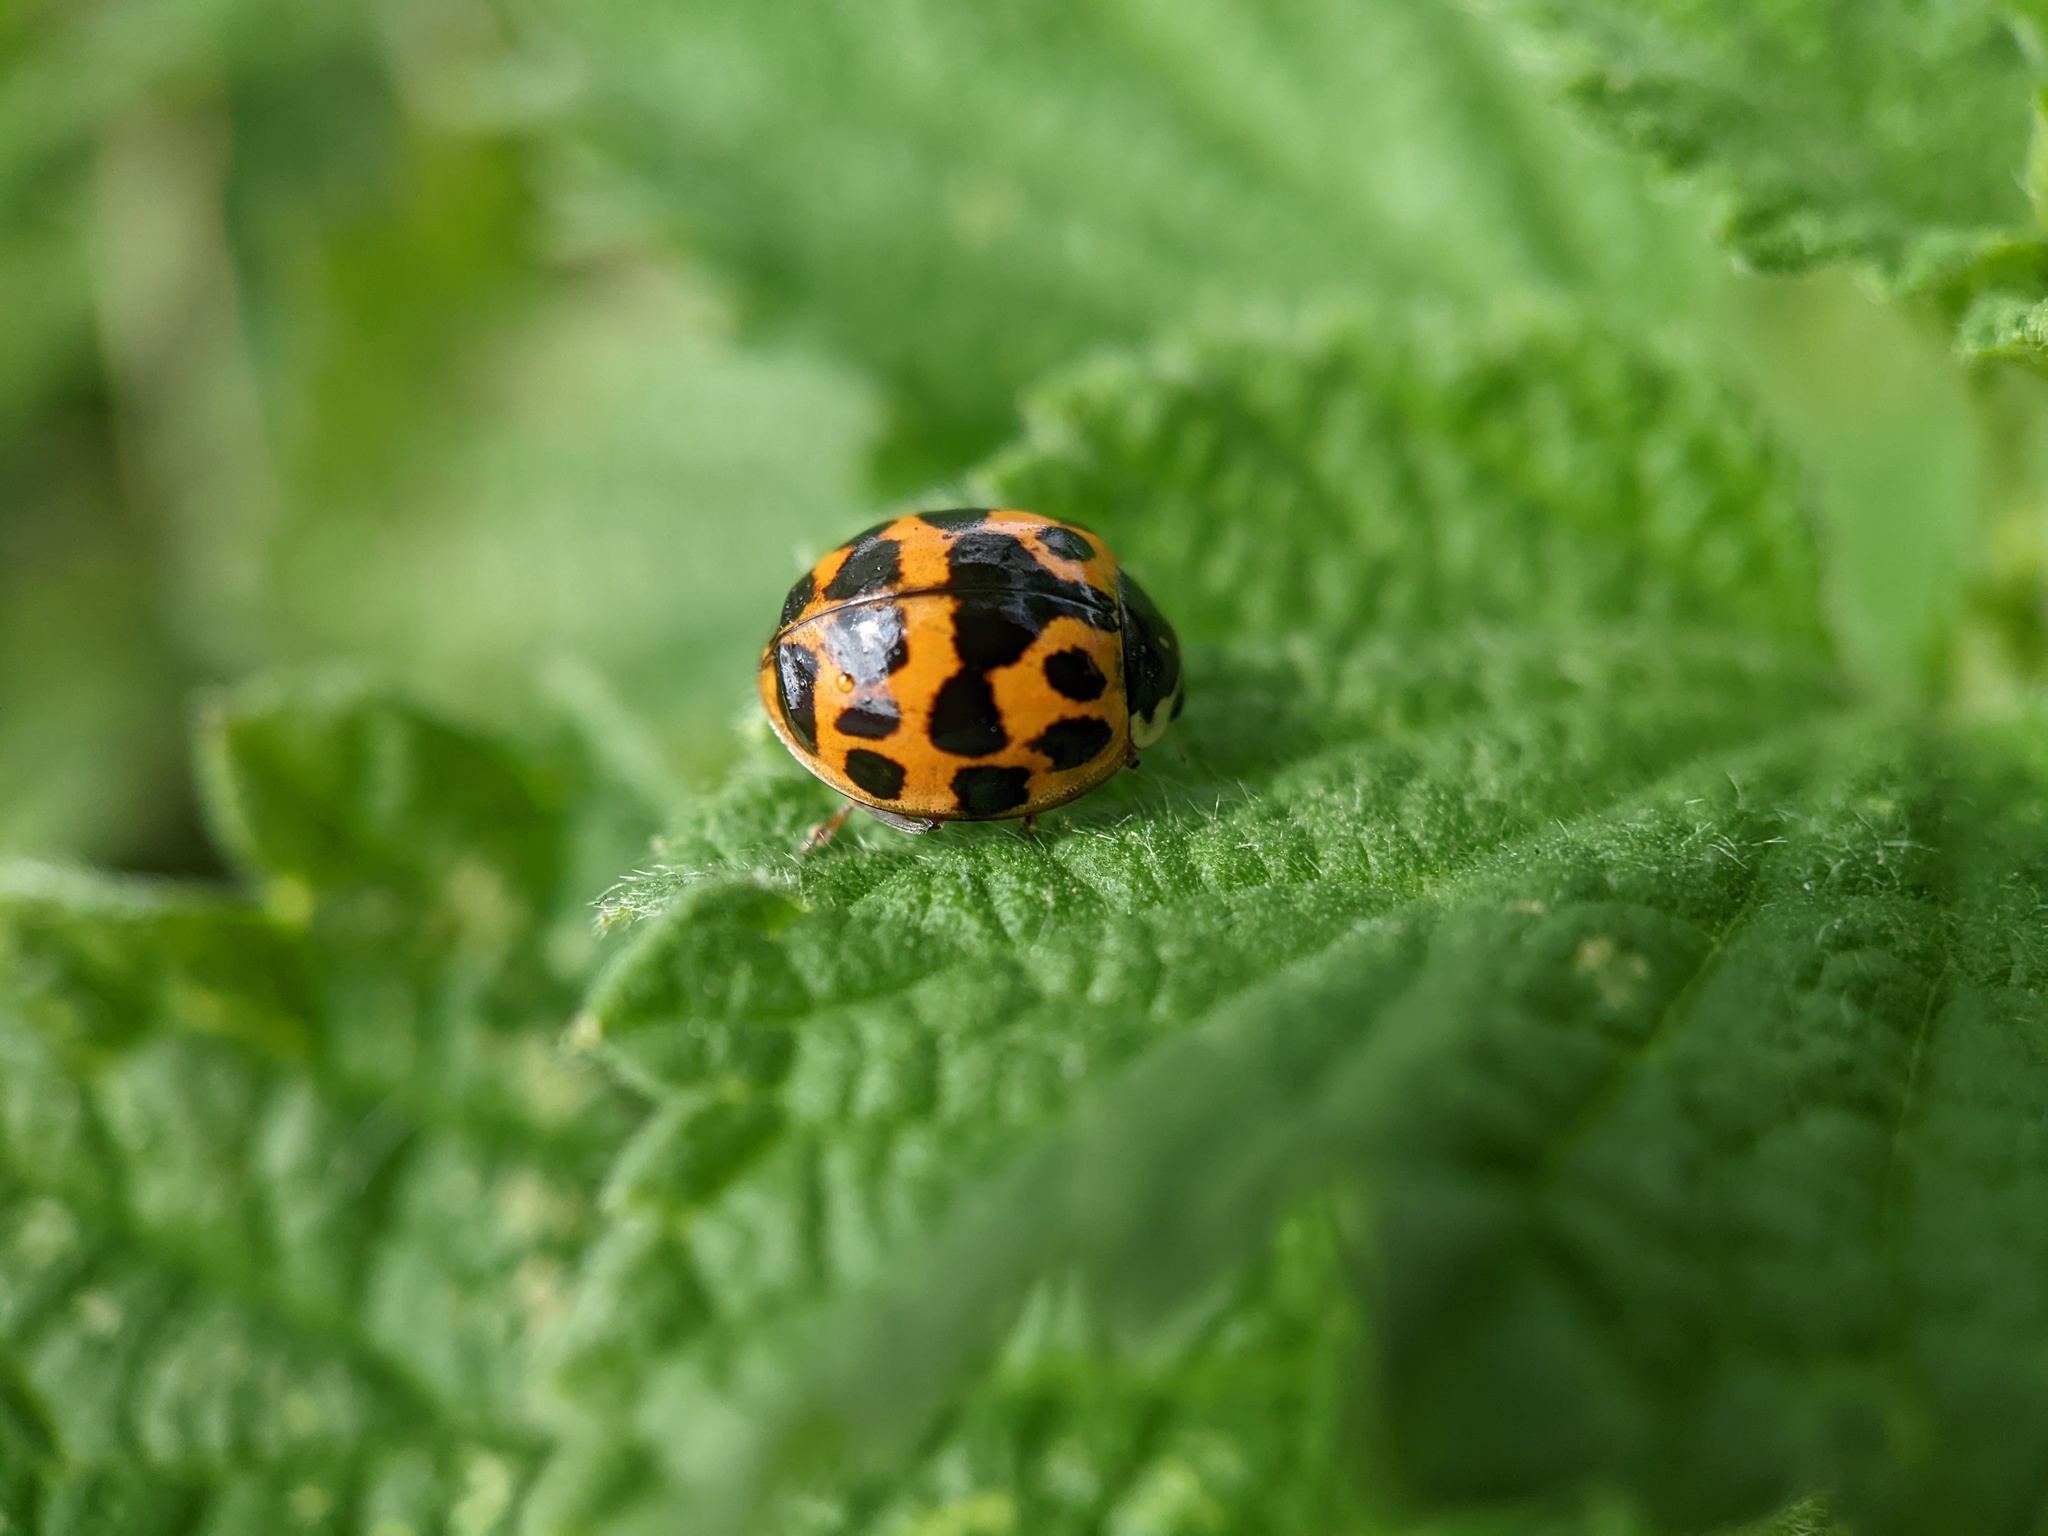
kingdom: Animalia
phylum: Arthropoda
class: Insecta
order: Coleoptera
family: Coccinellidae
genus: Harmonia
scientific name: Harmonia axyridis
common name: Harlequin ladybird
